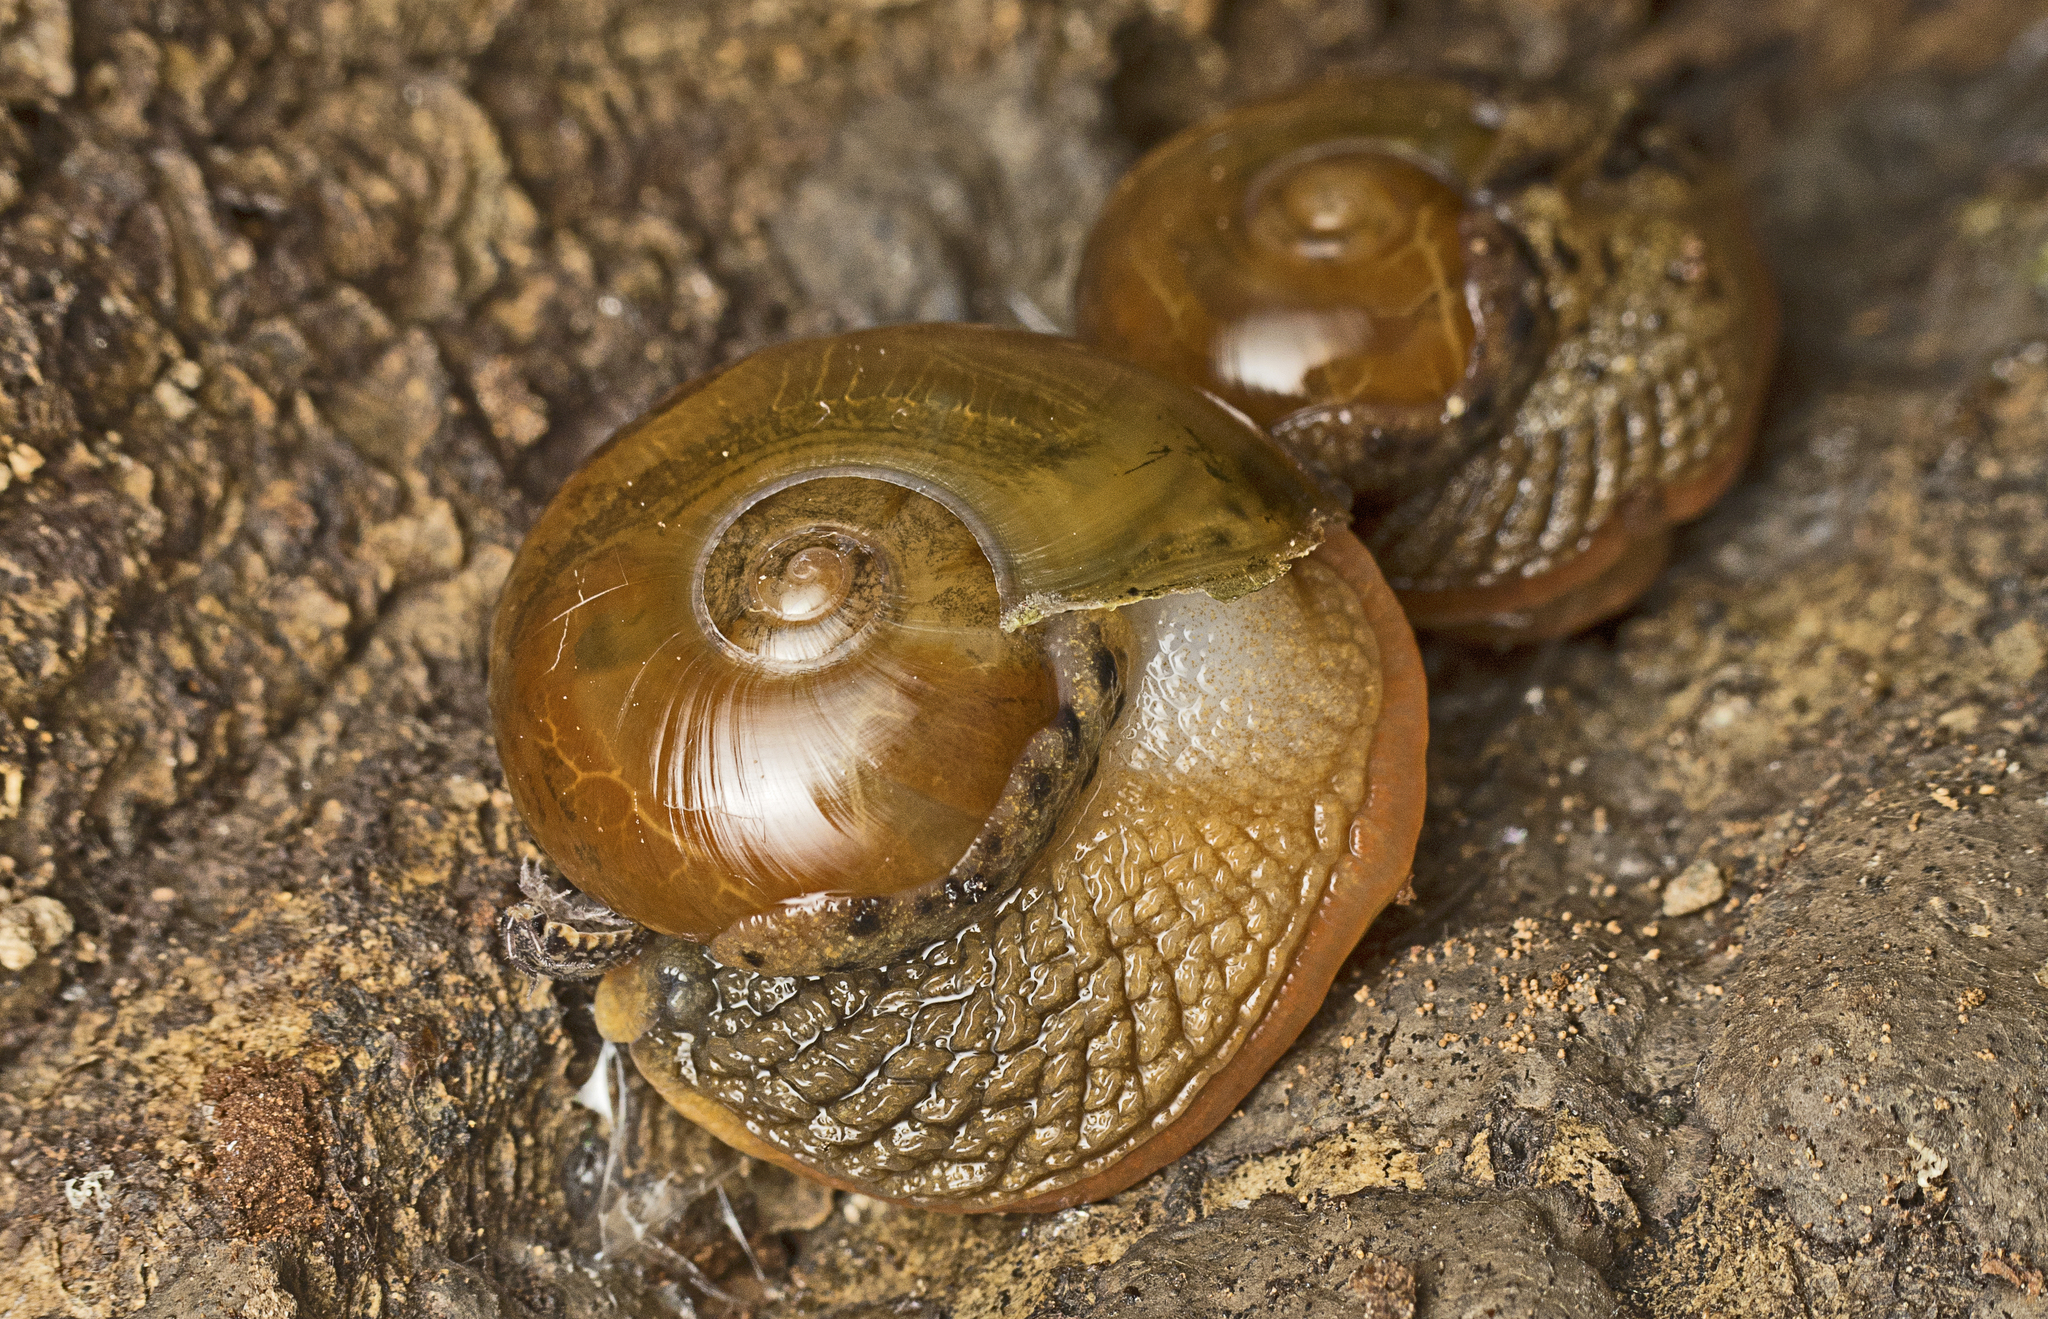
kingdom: Animalia
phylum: Mollusca
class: Gastropoda
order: Stylommatophora
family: Helicarionidae
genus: Stanisicarion
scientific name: Stanisicarion aquila
